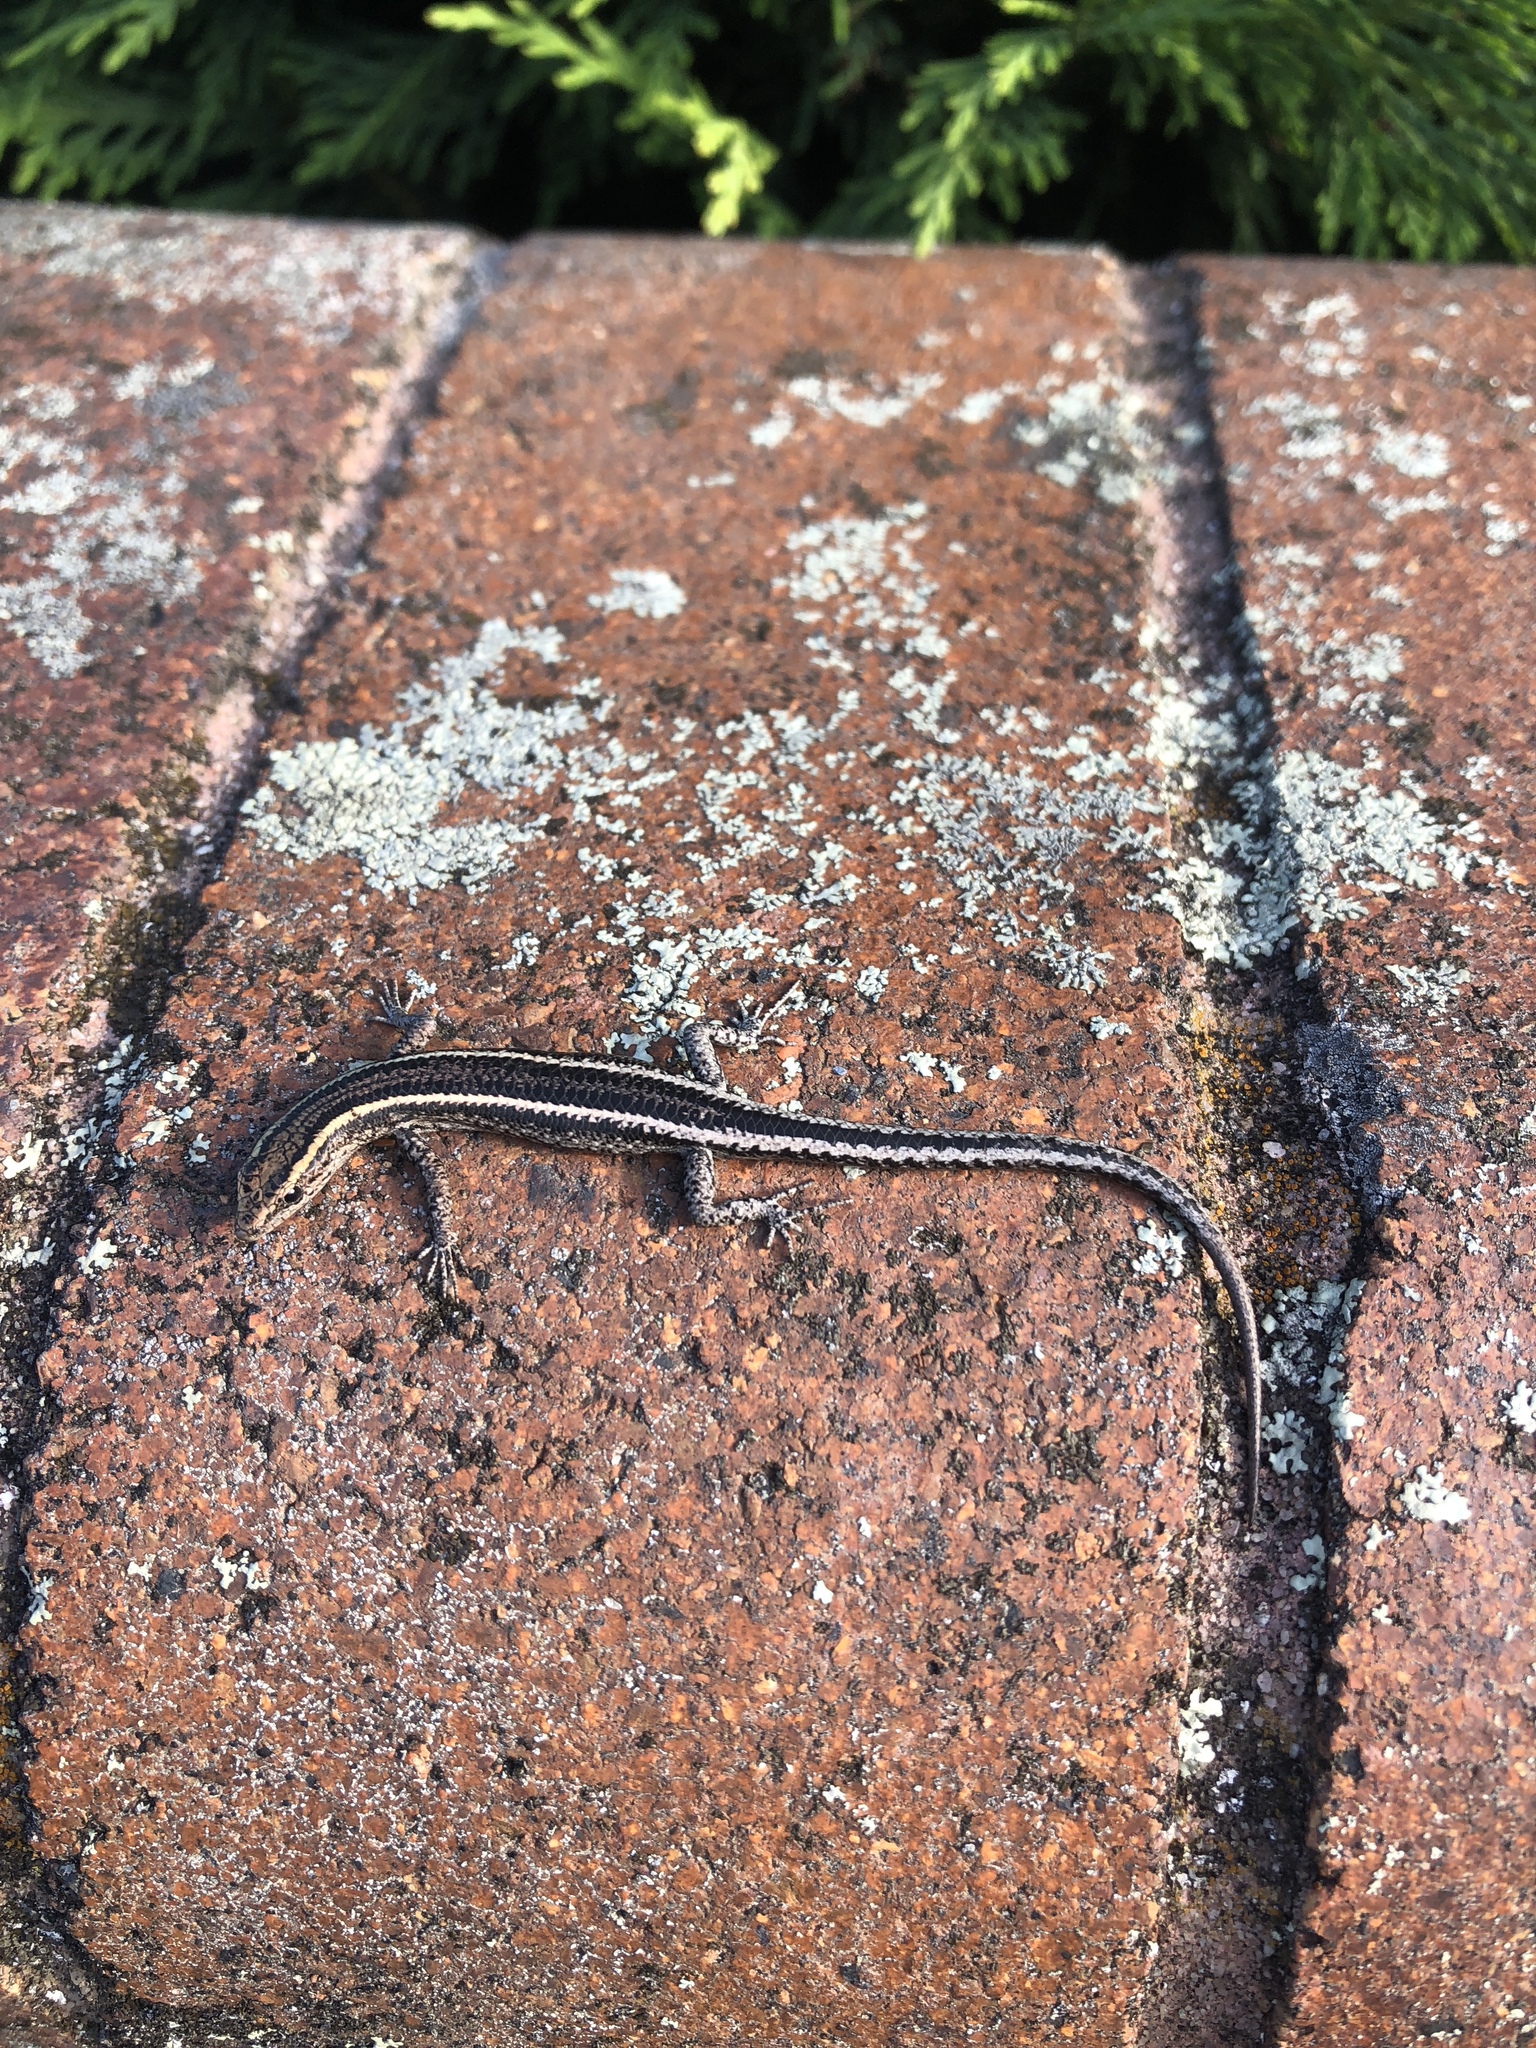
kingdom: Animalia
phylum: Chordata
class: Squamata
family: Scincidae
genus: Cryptoblepharus
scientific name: Cryptoblepharus pulcher
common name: Elegant snake-eyed skink
